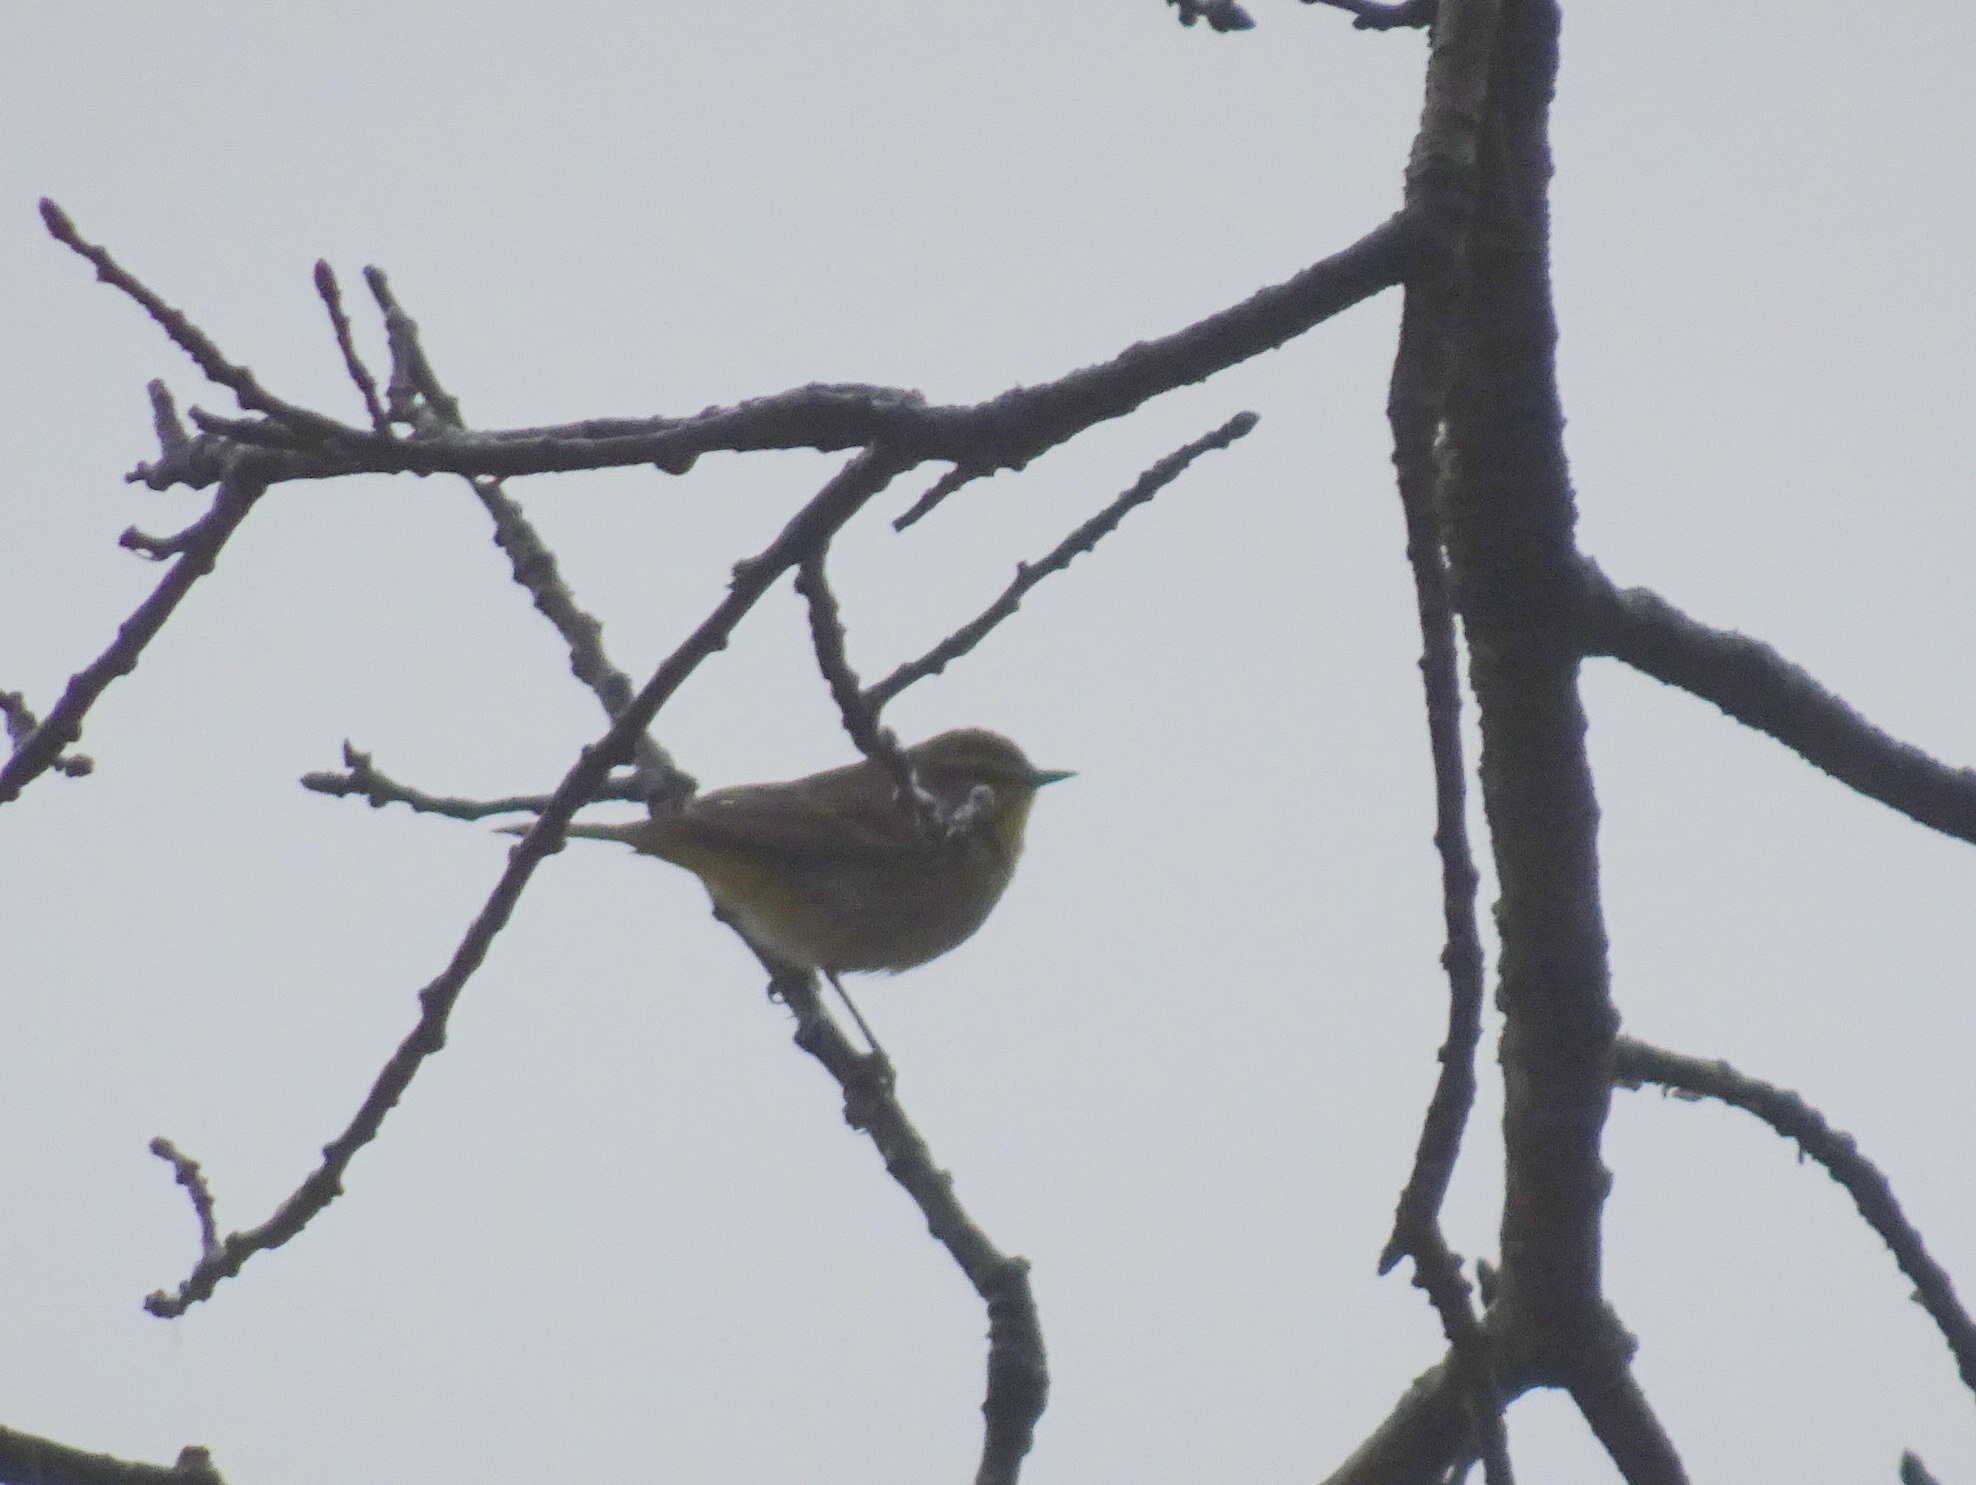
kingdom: Animalia
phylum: Chordata
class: Aves
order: Passeriformes
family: Parulidae
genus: Setophaga
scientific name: Setophaga palmarum
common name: Palm warbler
